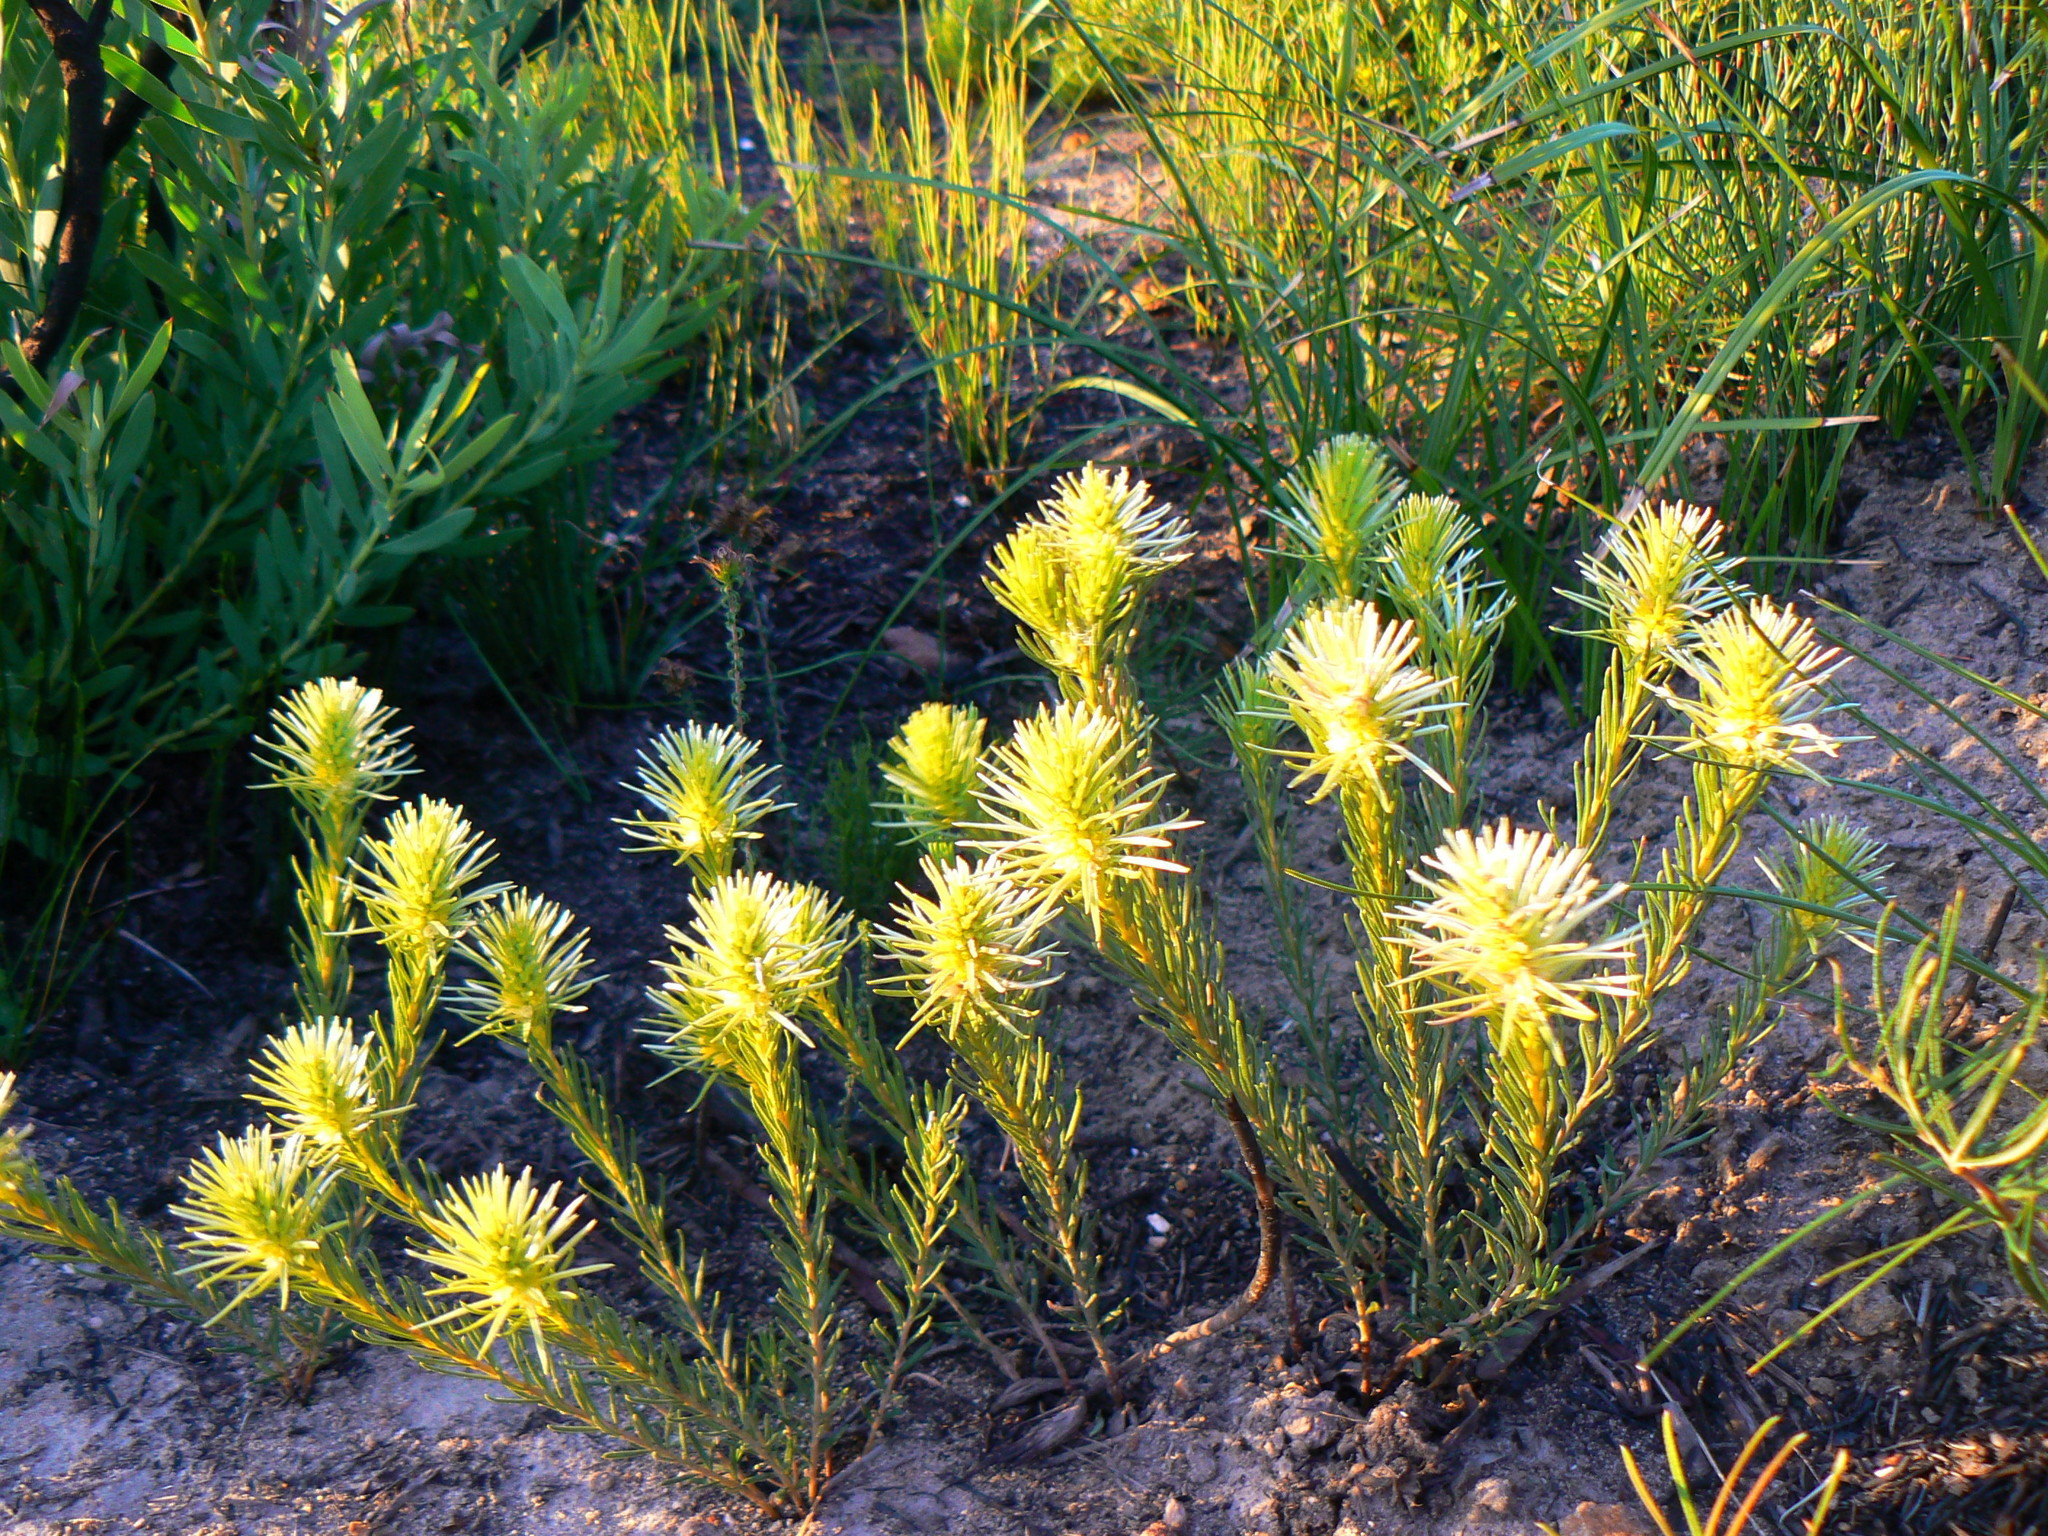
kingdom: Plantae
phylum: Tracheophyta
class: Magnoliopsida
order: Rosales
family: Rhamnaceae
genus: Phylica
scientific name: Phylica velutina
